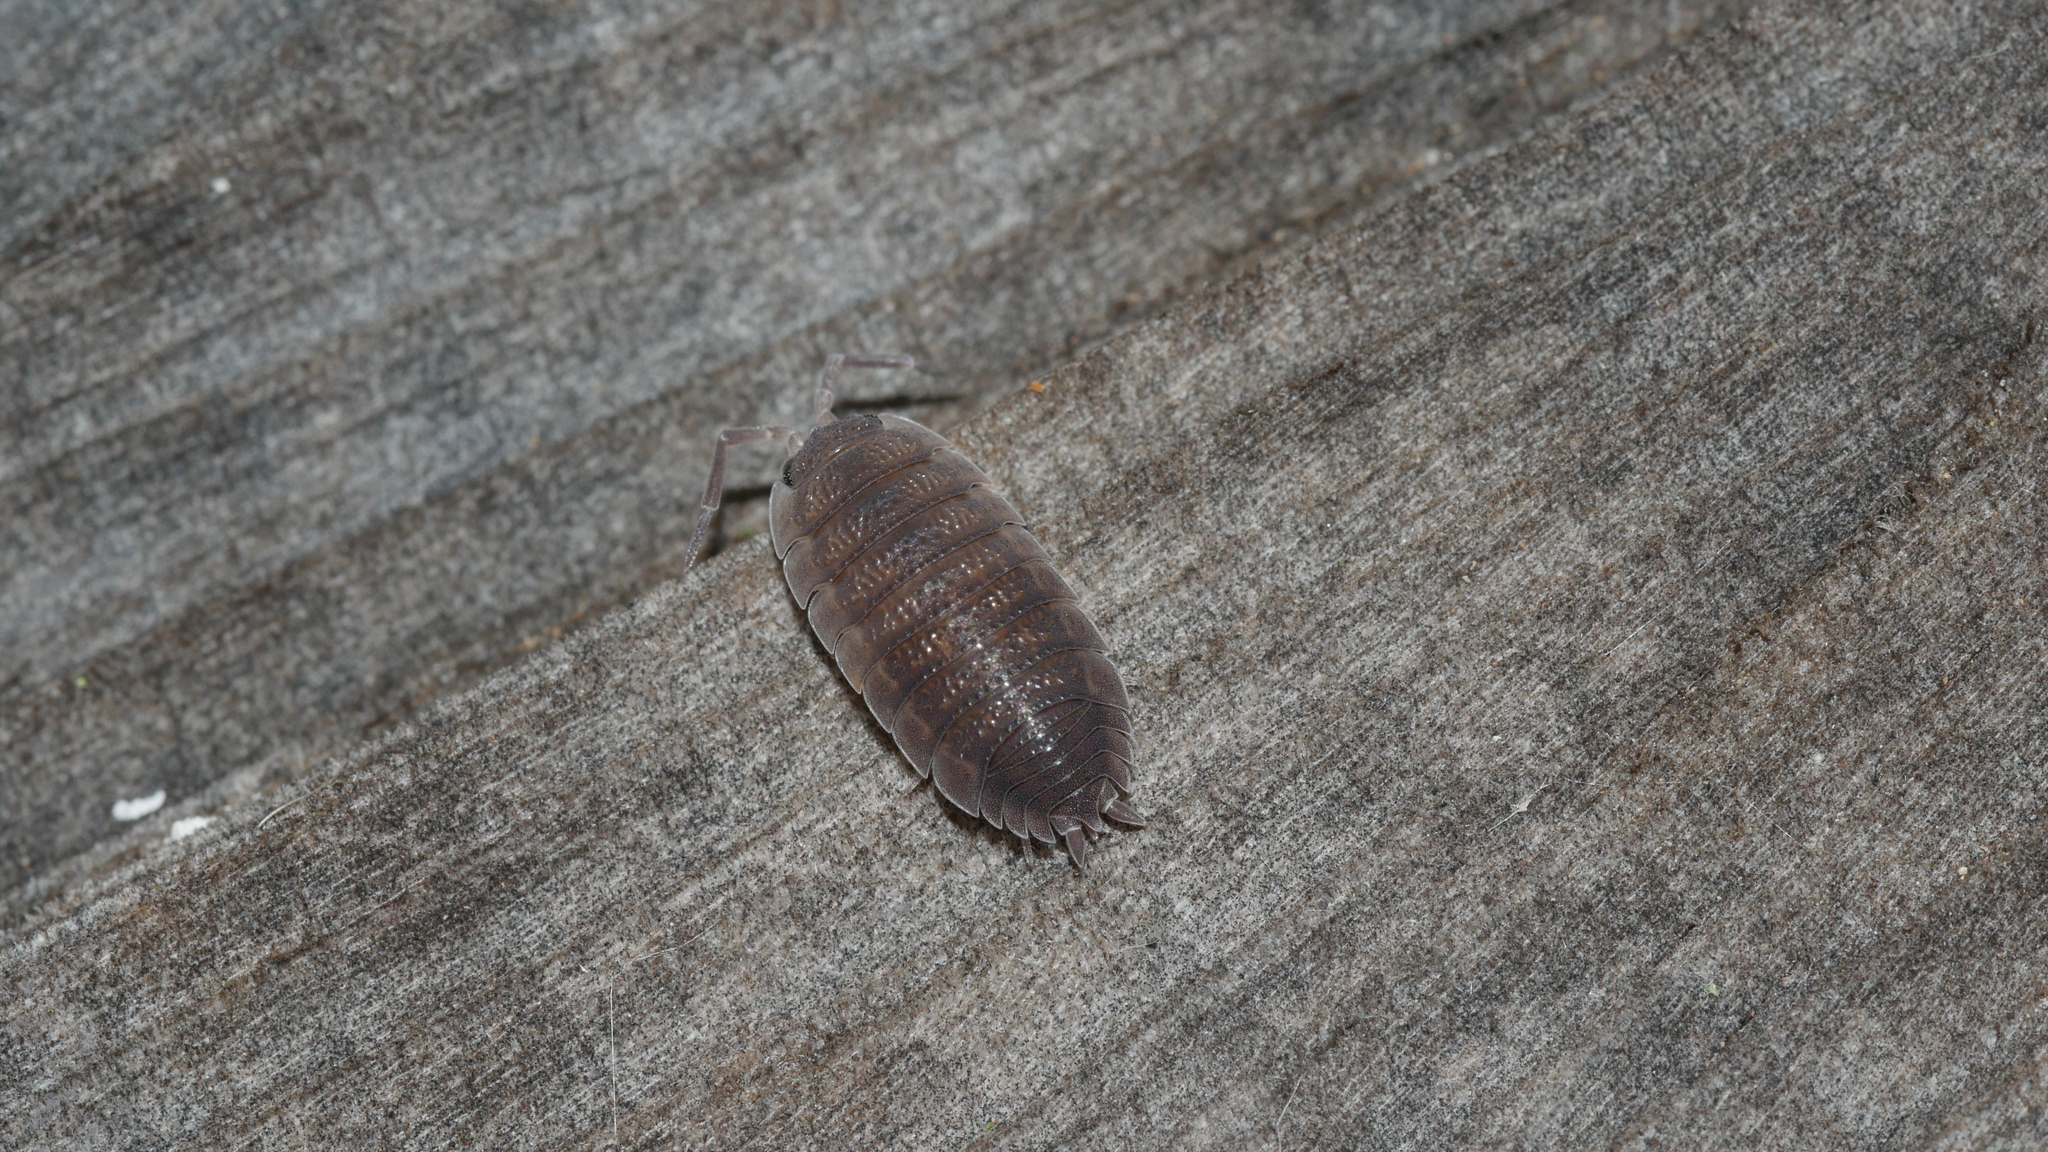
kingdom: Animalia
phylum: Arthropoda
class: Malacostraca
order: Isopoda
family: Porcellionidae
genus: Porcellio
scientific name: Porcellio scaber
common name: Common rough woodlouse
